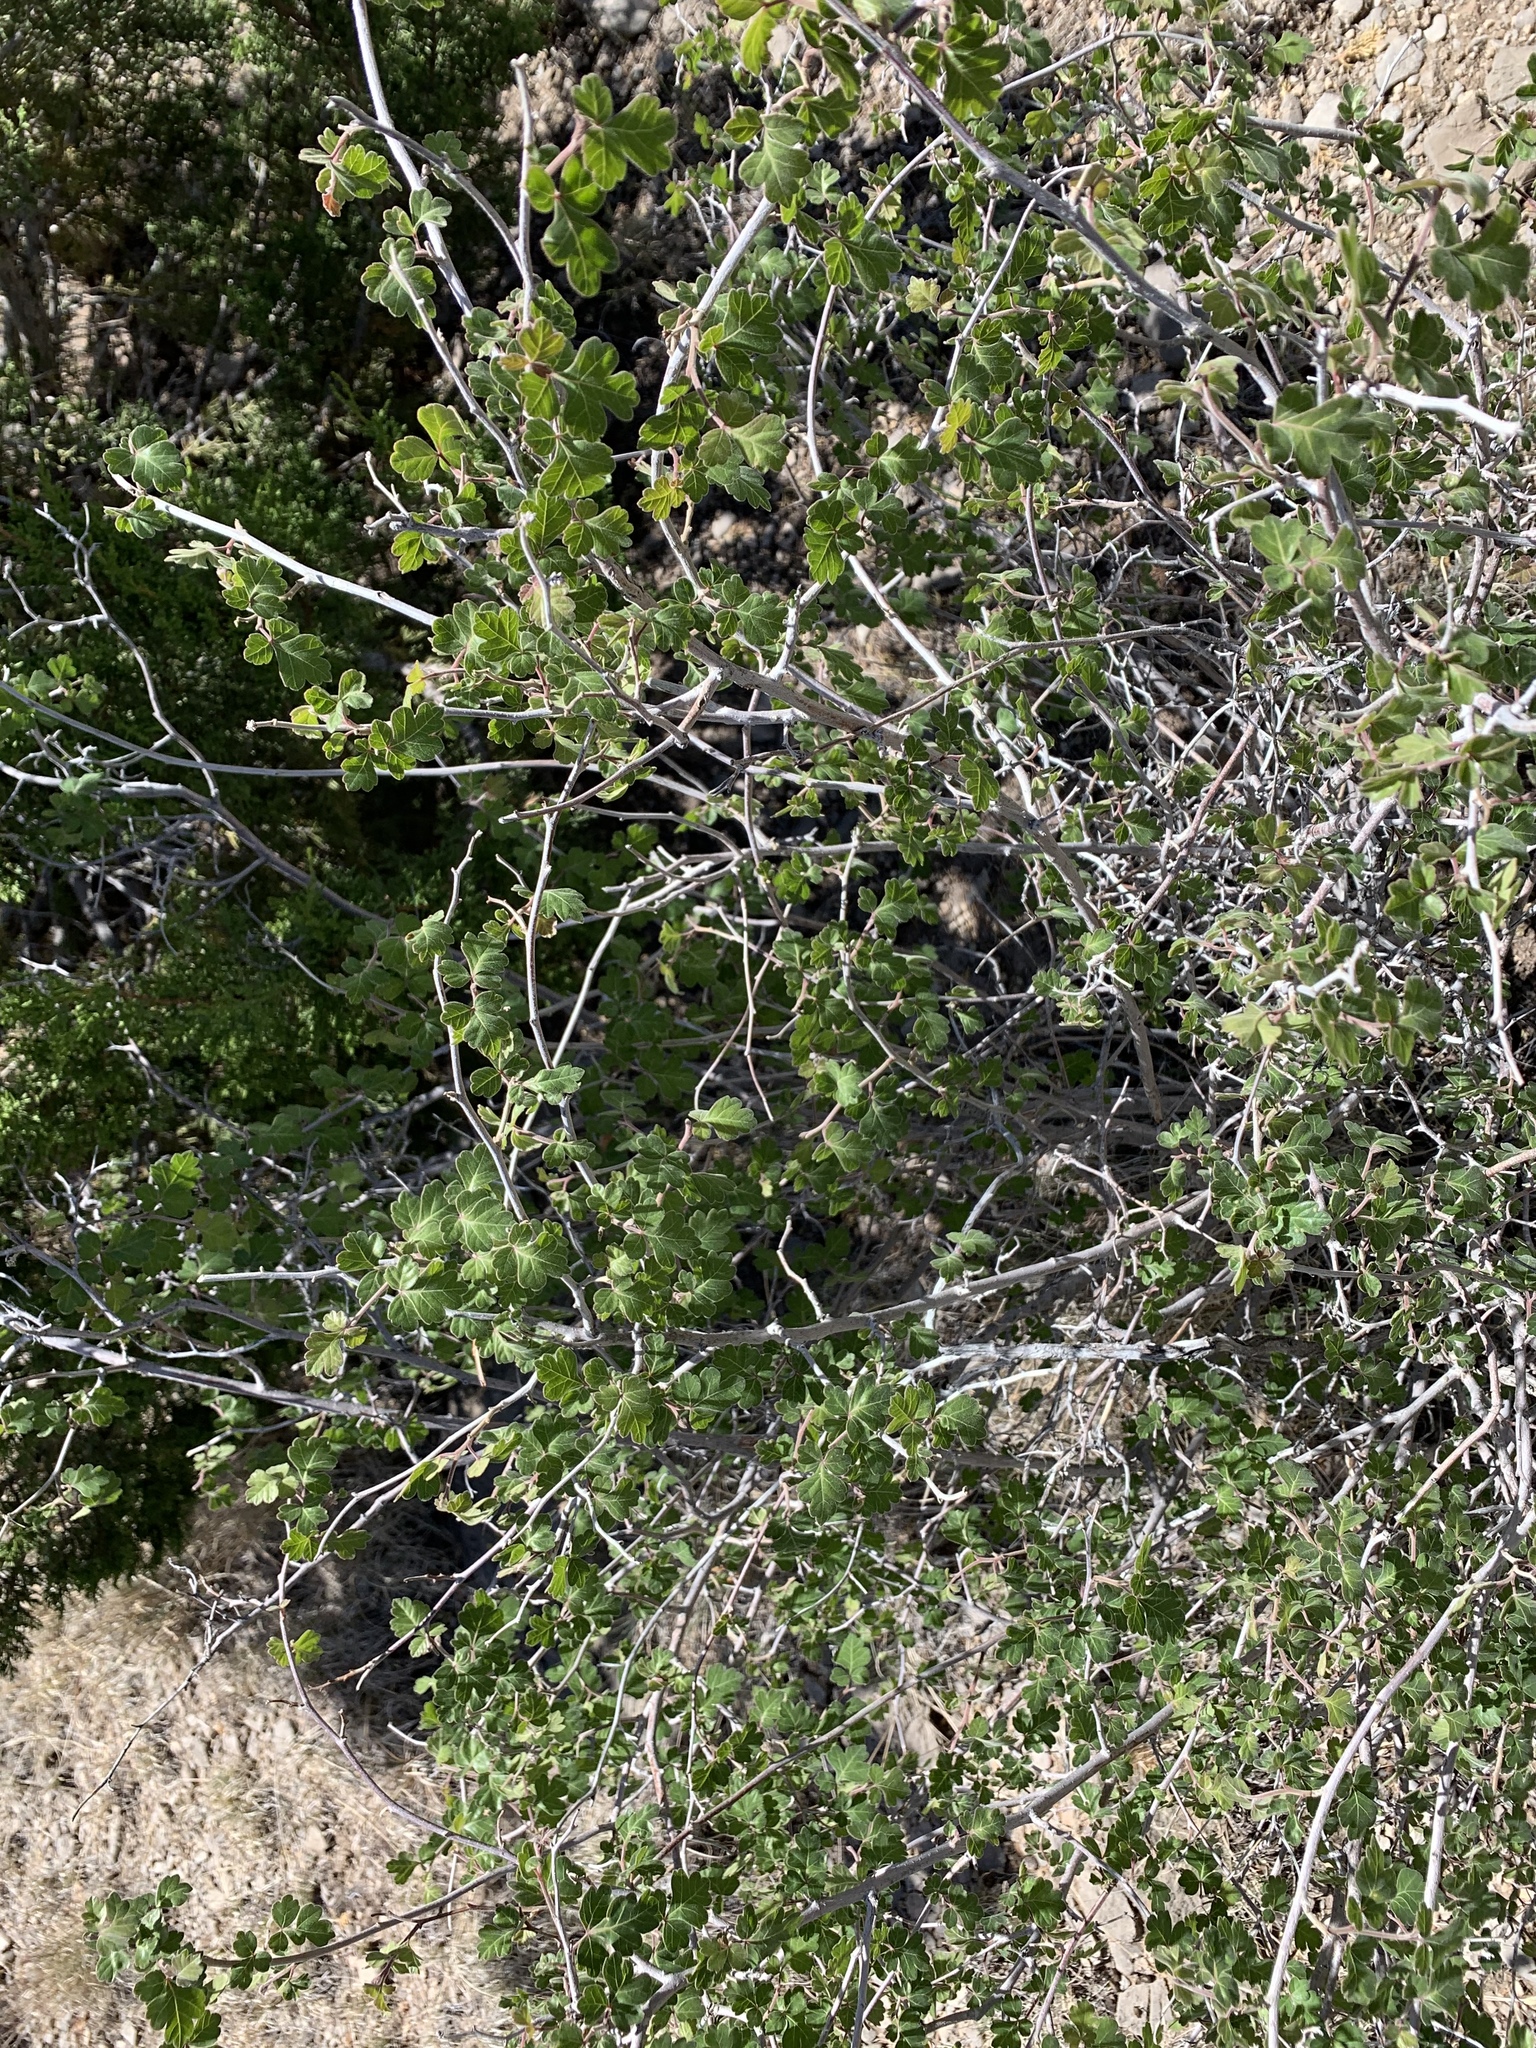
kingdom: Plantae
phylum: Tracheophyta
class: Magnoliopsida
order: Sapindales
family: Anacardiaceae
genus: Rhus
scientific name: Rhus aromatica
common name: Aromatic sumac
